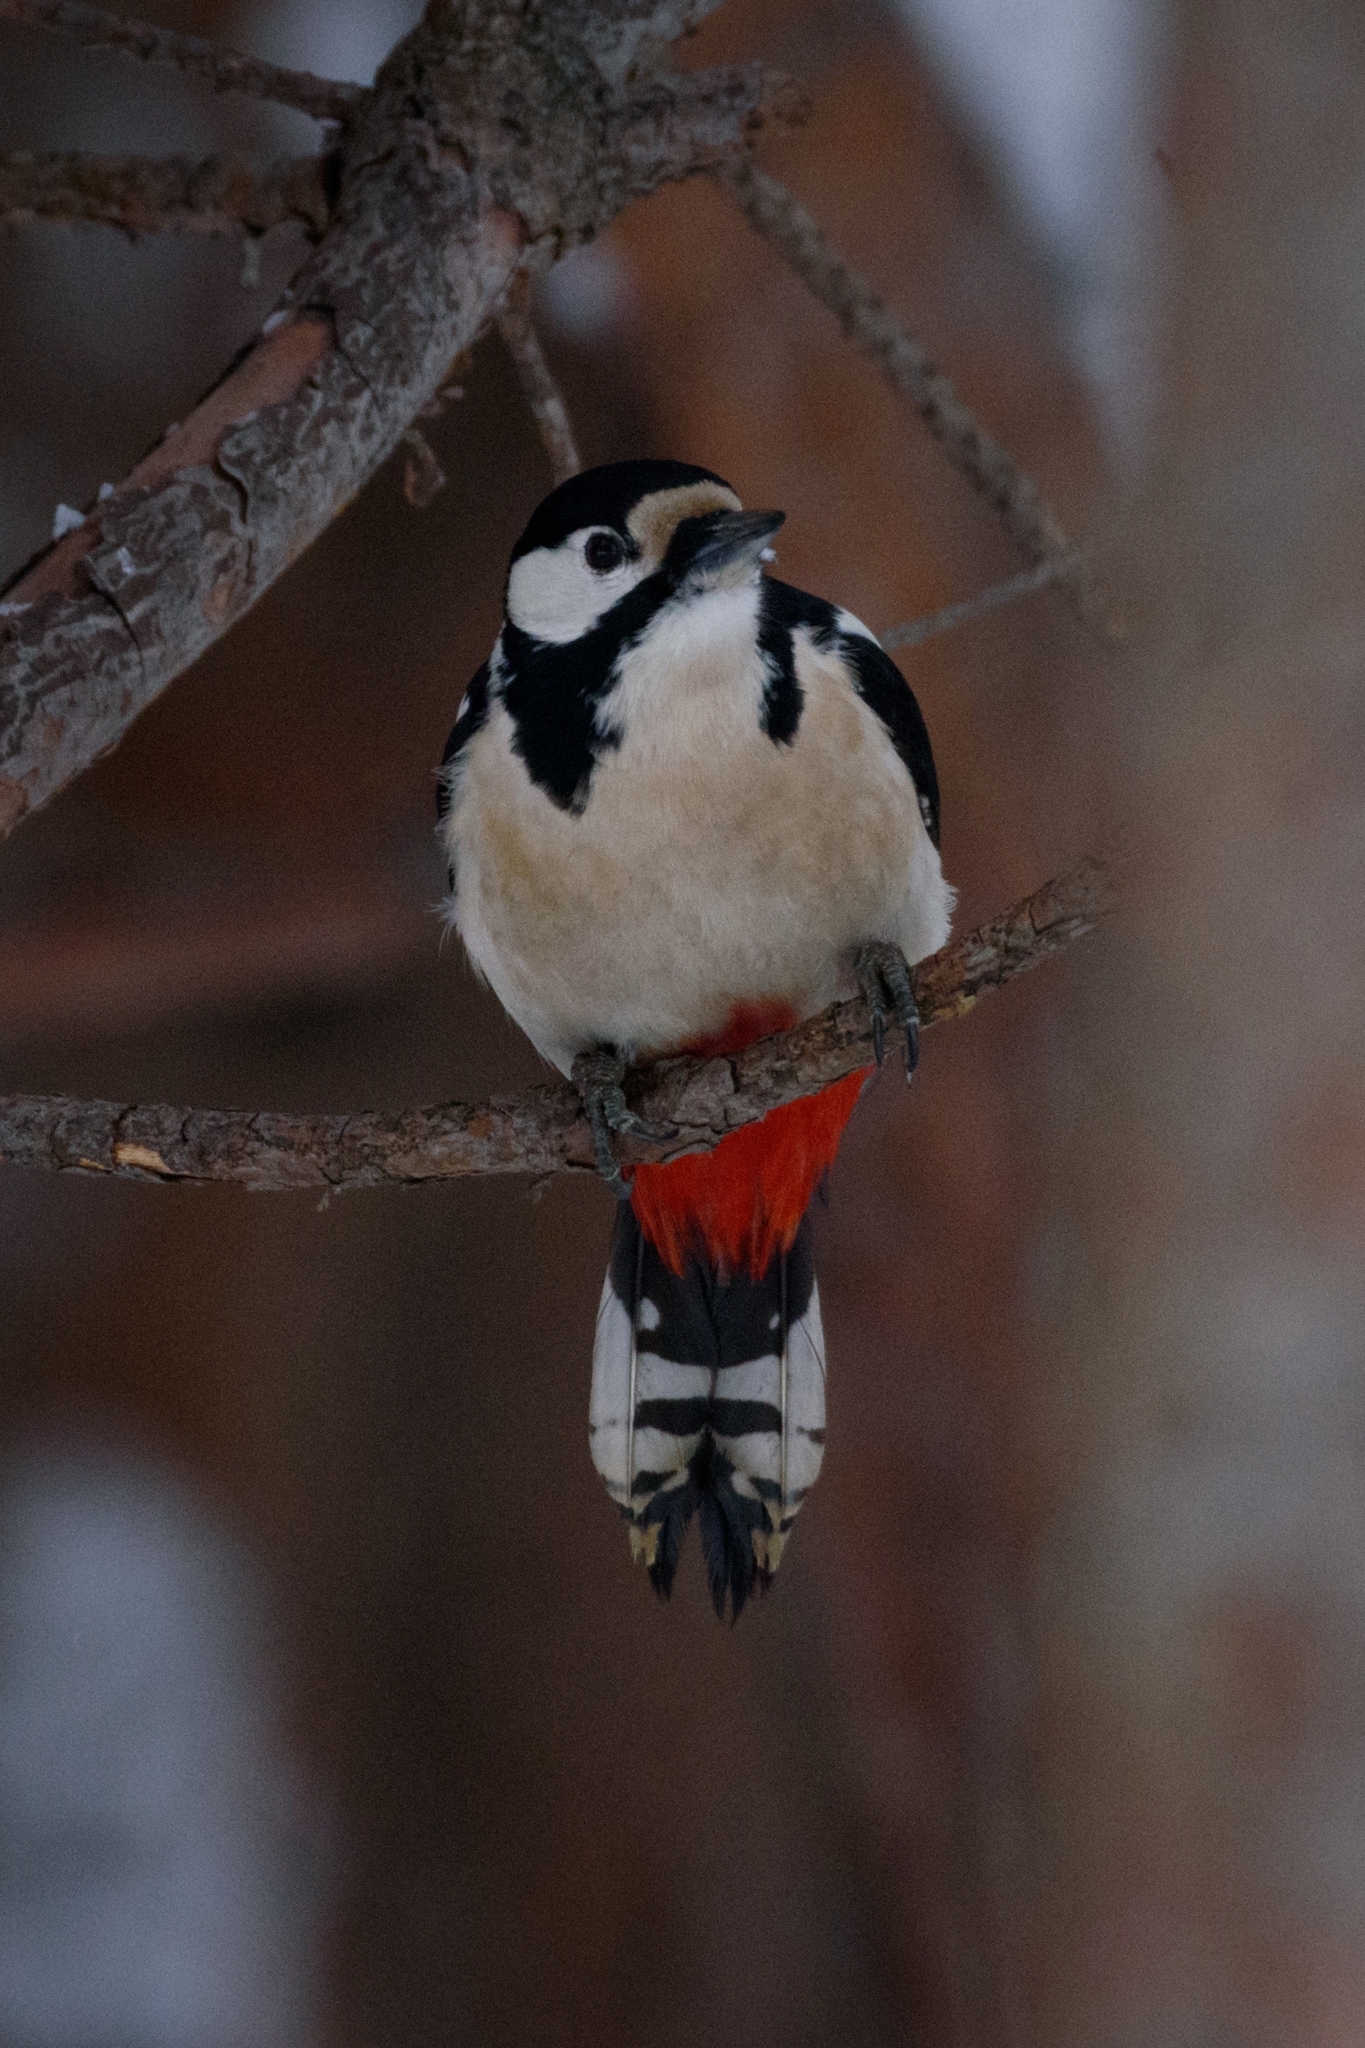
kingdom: Animalia
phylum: Chordata
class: Aves
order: Piciformes
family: Picidae
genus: Dendrocopos
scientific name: Dendrocopos major
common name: Great spotted woodpecker
